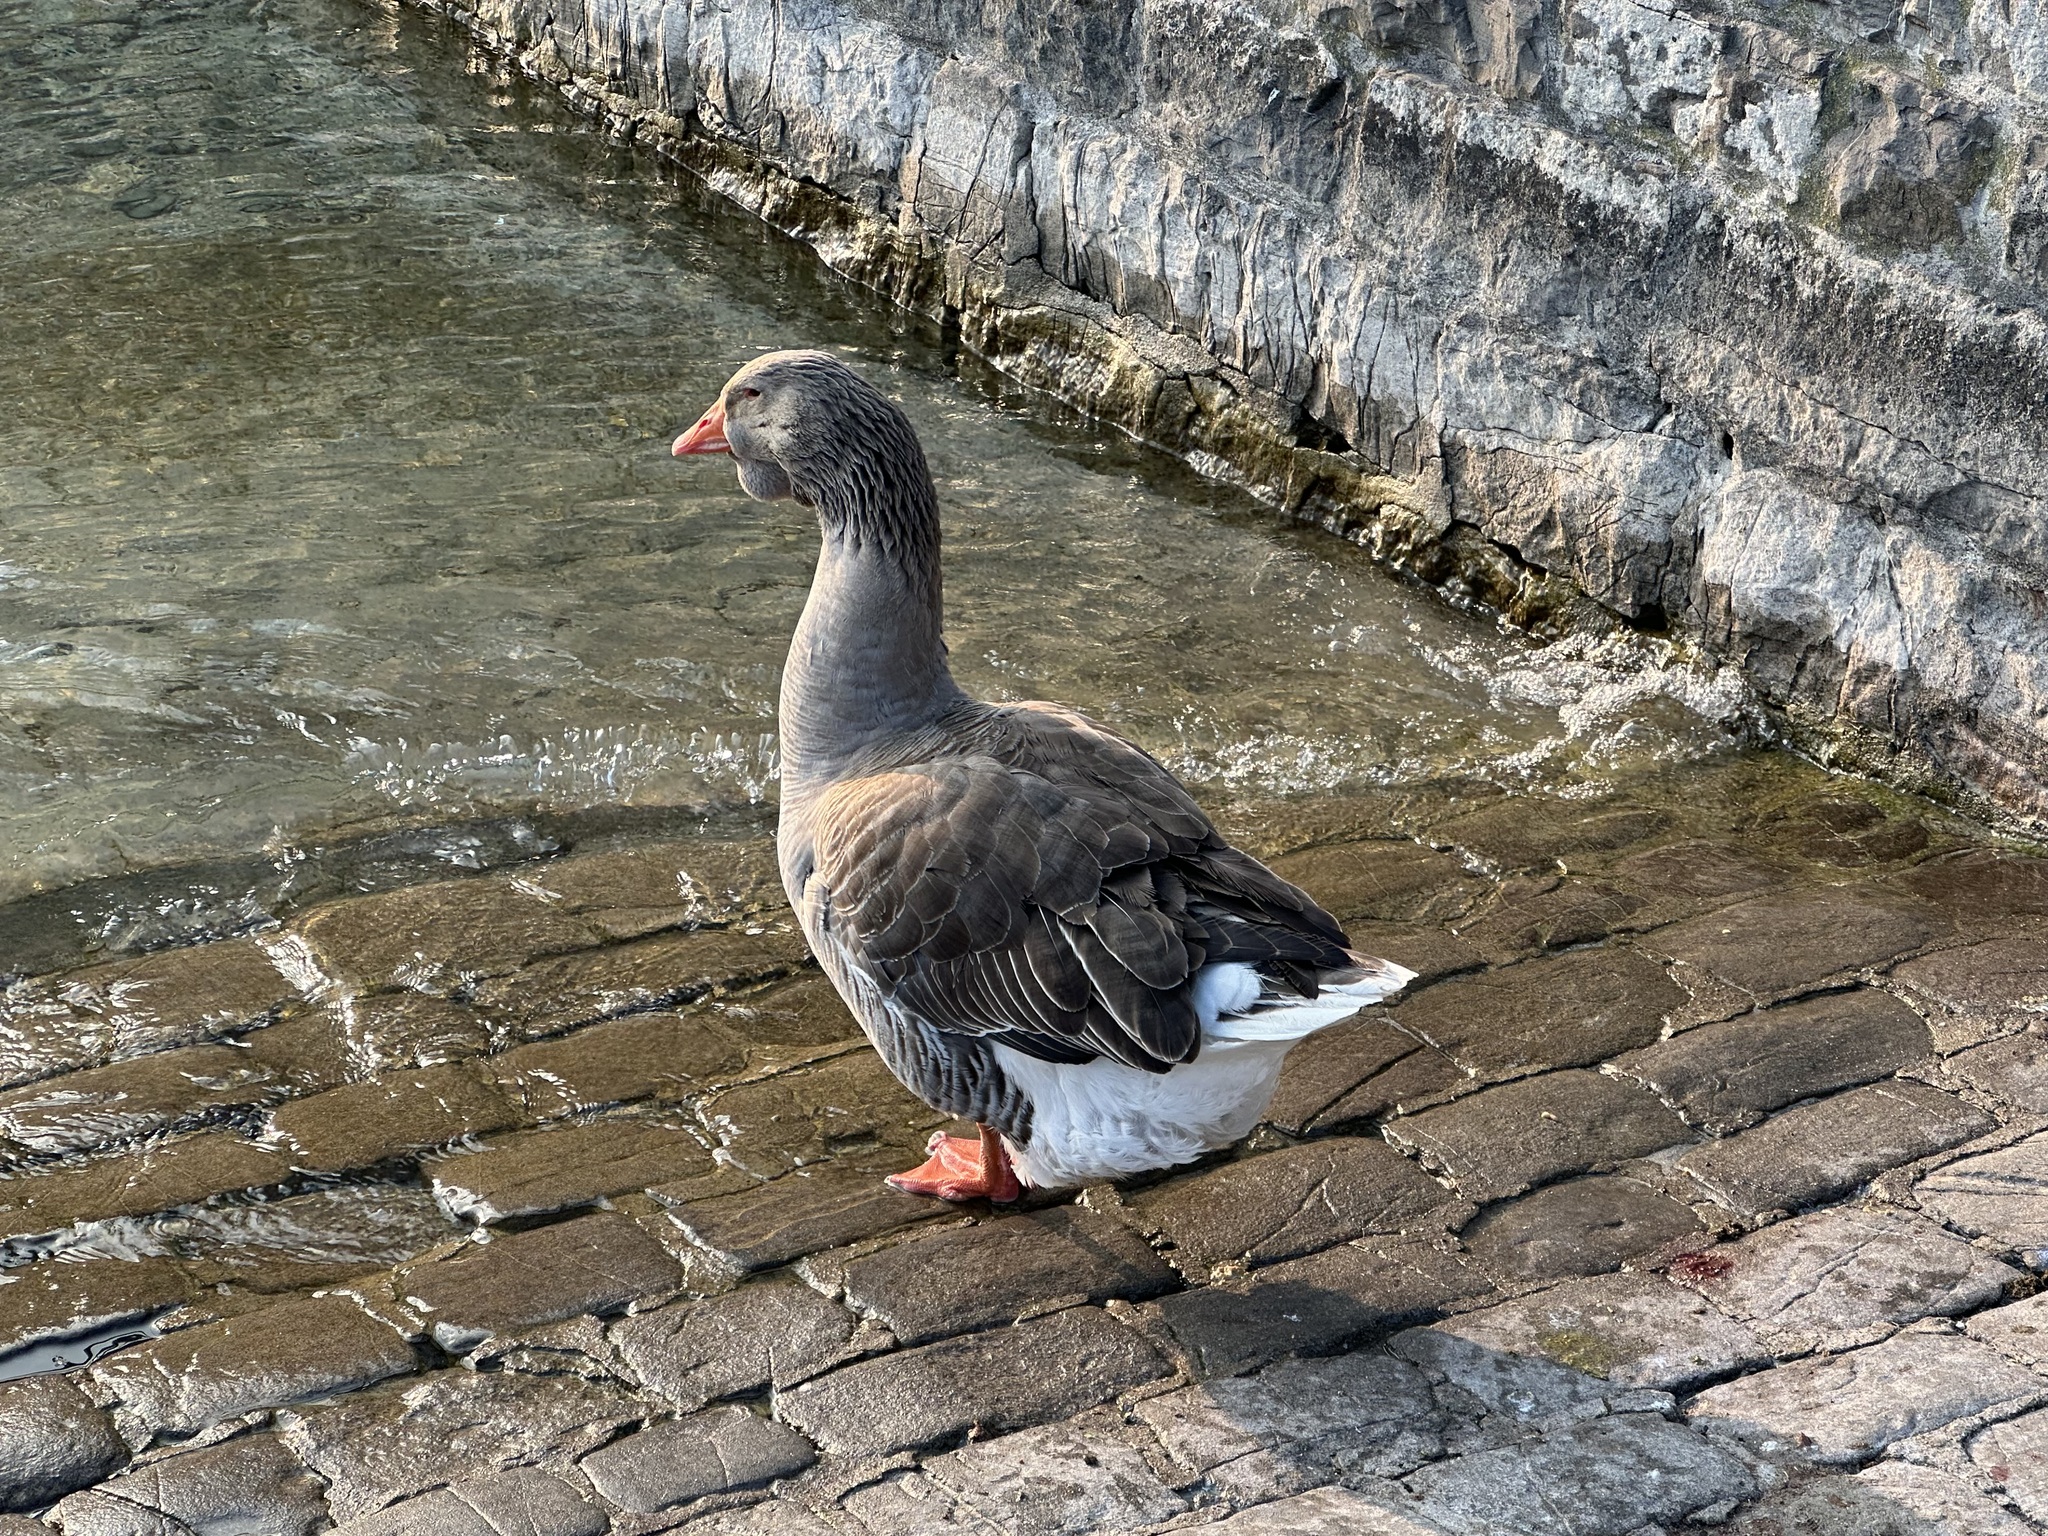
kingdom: Animalia
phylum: Chordata
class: Aves
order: Anseriformes
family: Anatidae
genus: Anser
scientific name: Anser anser
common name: Greylag goose
